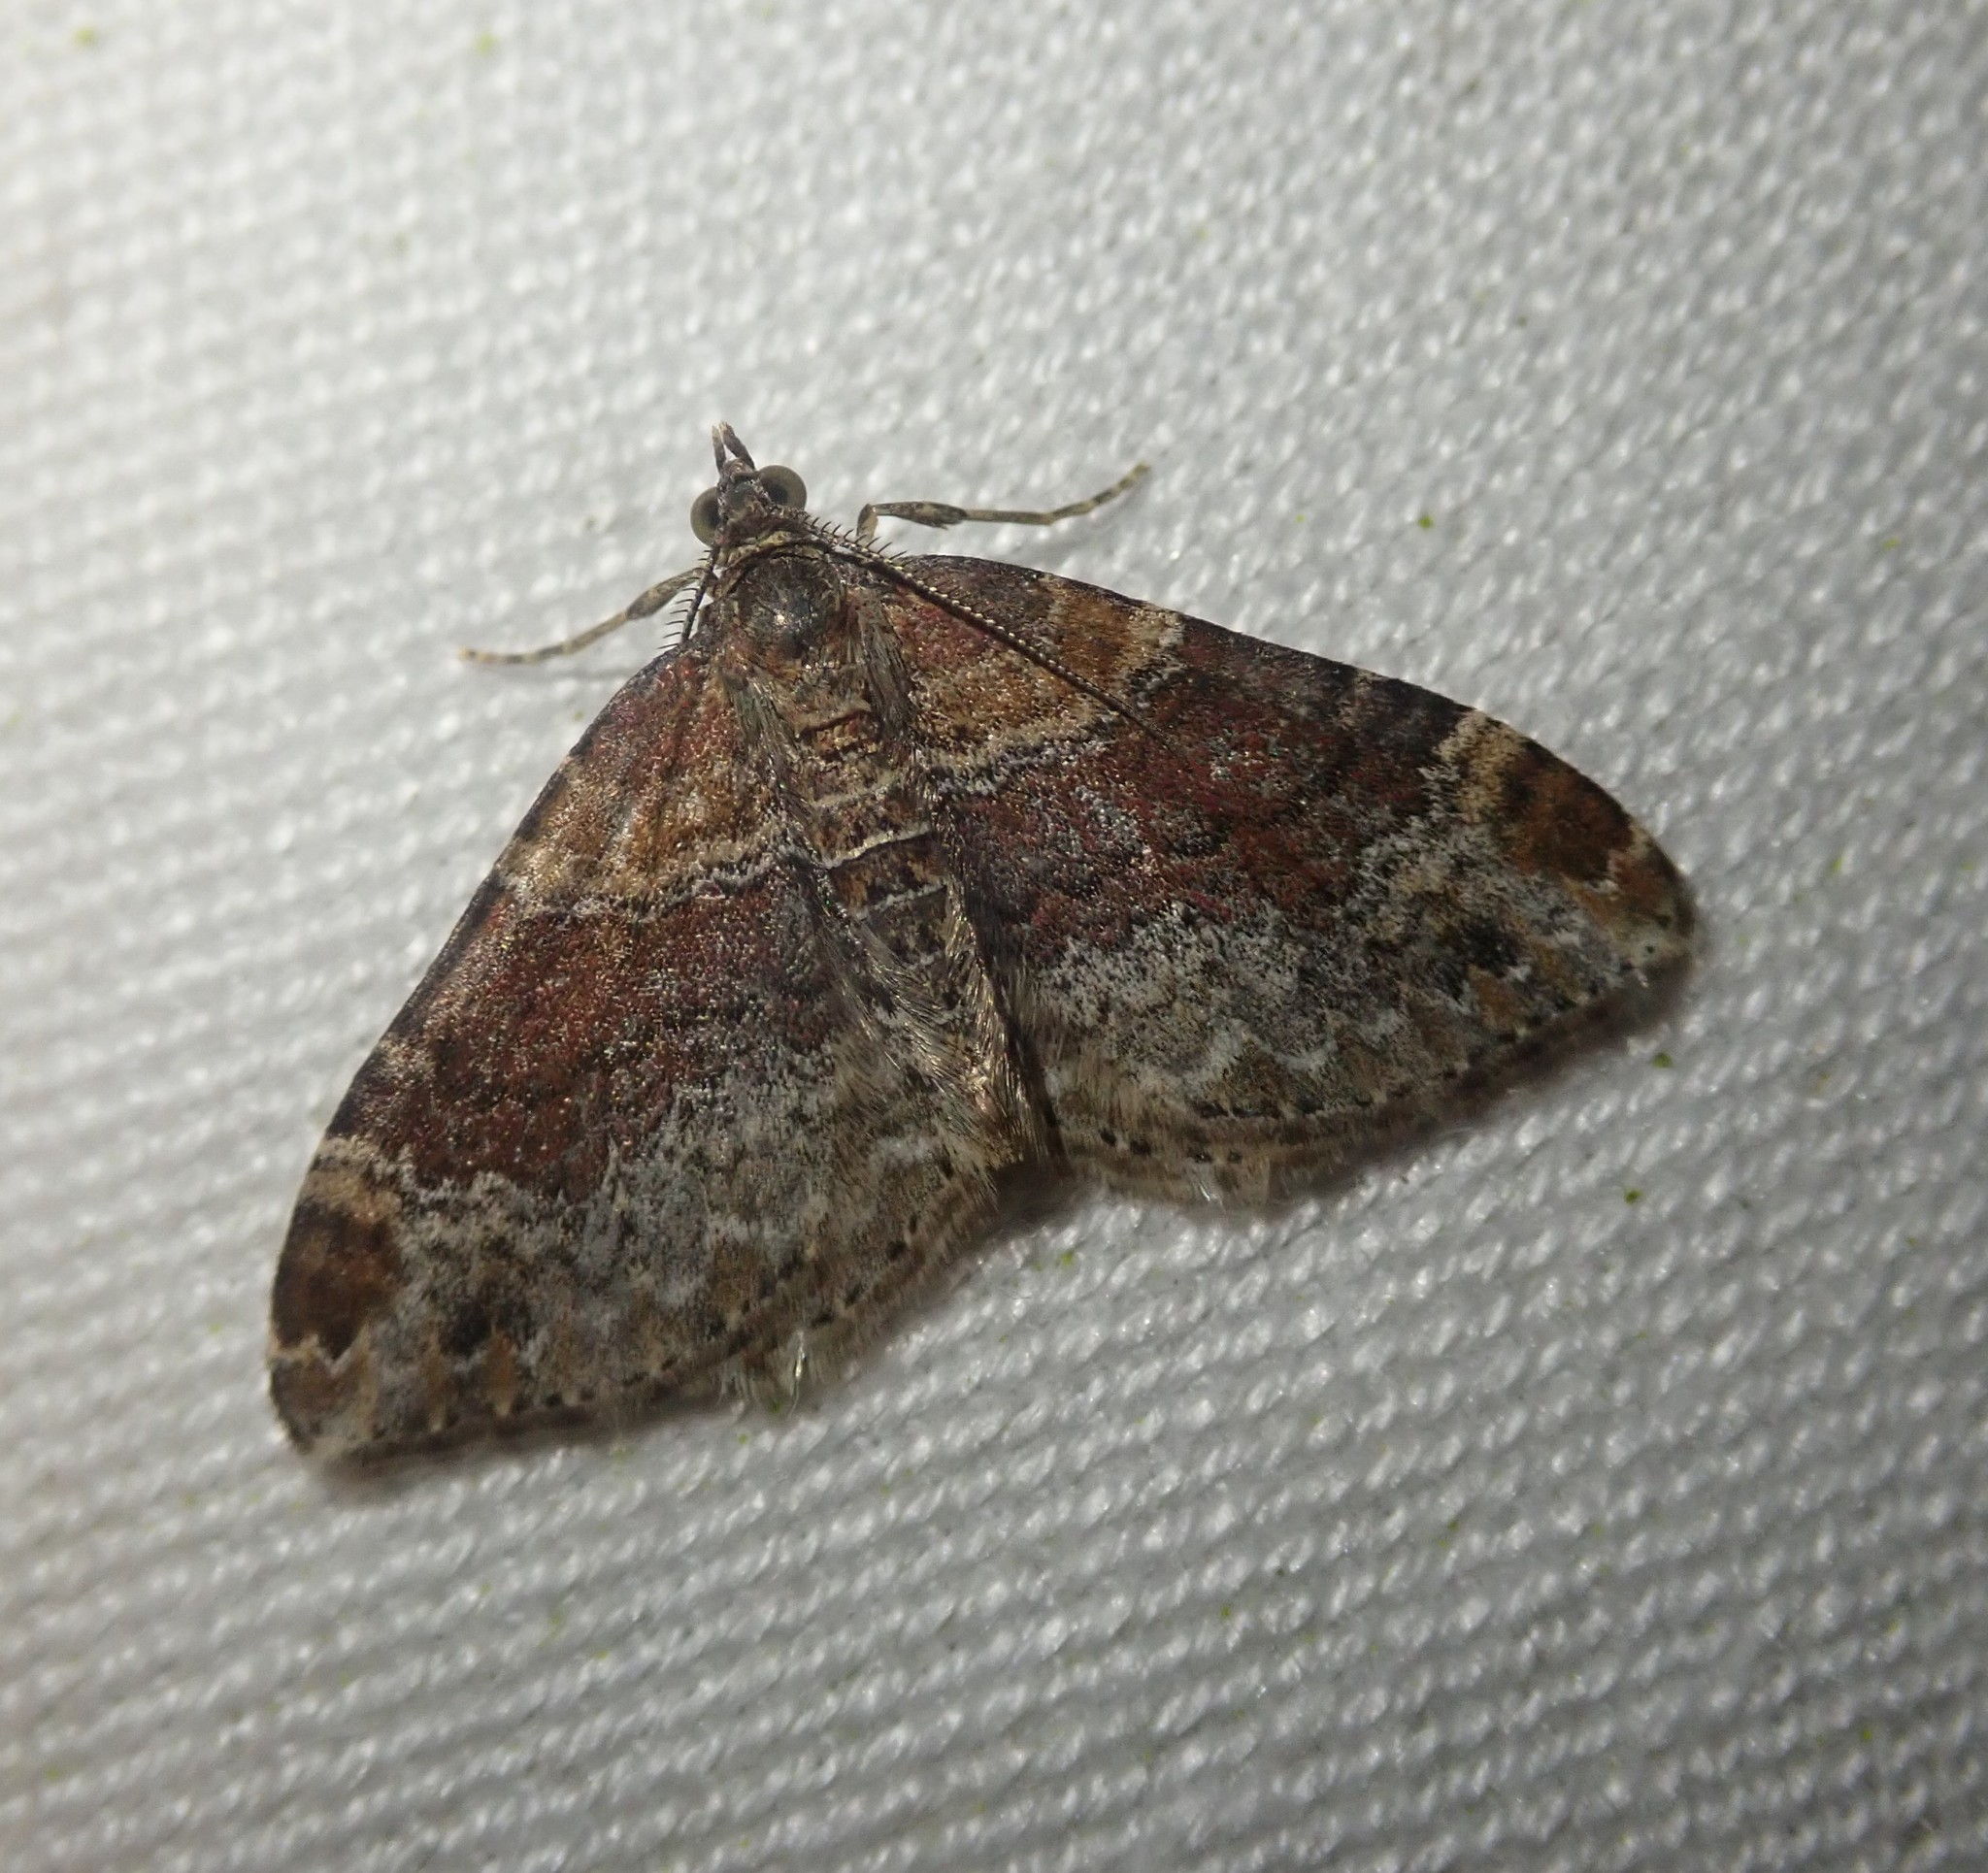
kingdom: Animalia
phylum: Arthropoda
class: Insecta
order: Lepidoptera
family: Geometridae
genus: Xanthorhoe
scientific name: Xanthorhoe spadicearia
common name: Red twin-spot carpet
